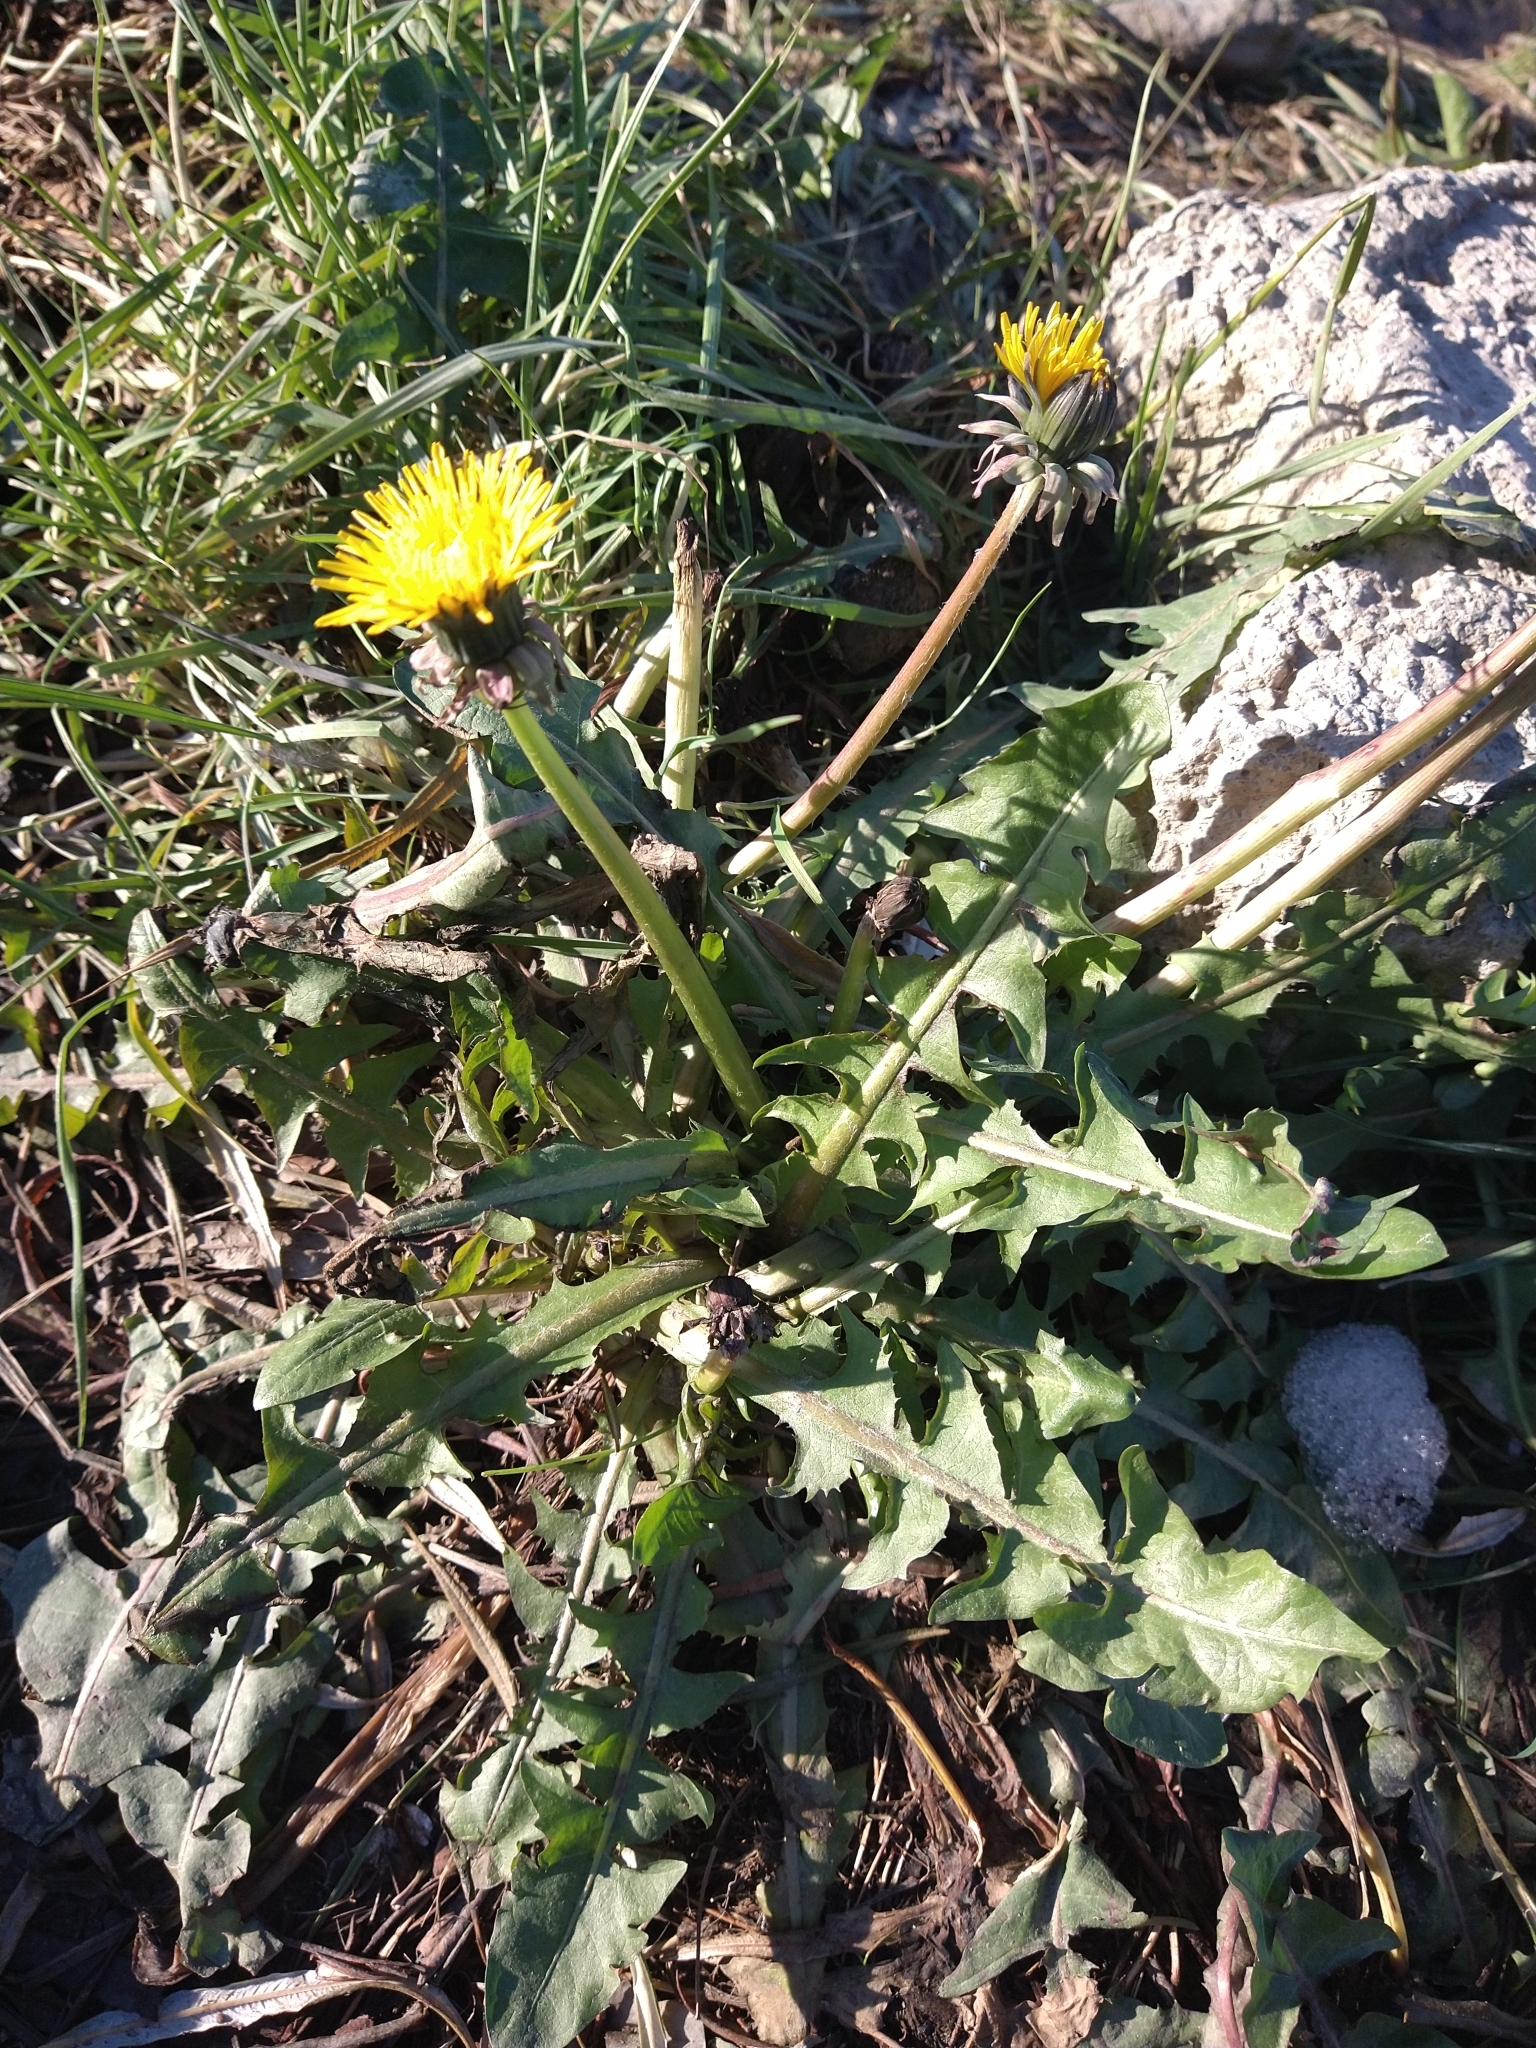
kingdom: Plantae
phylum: Tracheophyta
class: Magnoliopsida
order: Asterales
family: Asteraceae
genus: Taraxacum
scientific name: Taraxacum officinale
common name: Common dandelion
